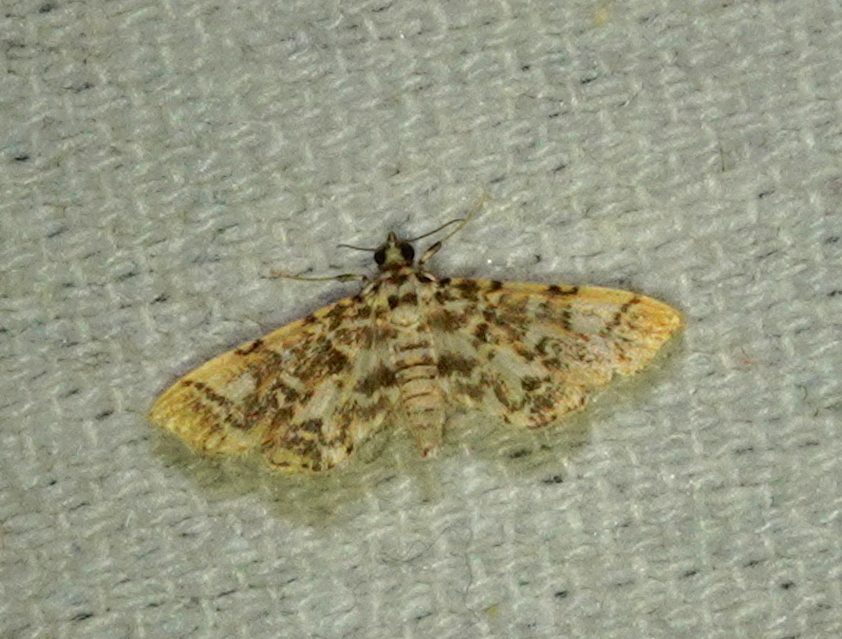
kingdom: Animalia
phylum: Arthropoda
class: Insecta
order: Lepidoptera
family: Crambidae
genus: Lamprosema
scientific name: Lamprosema commixta
